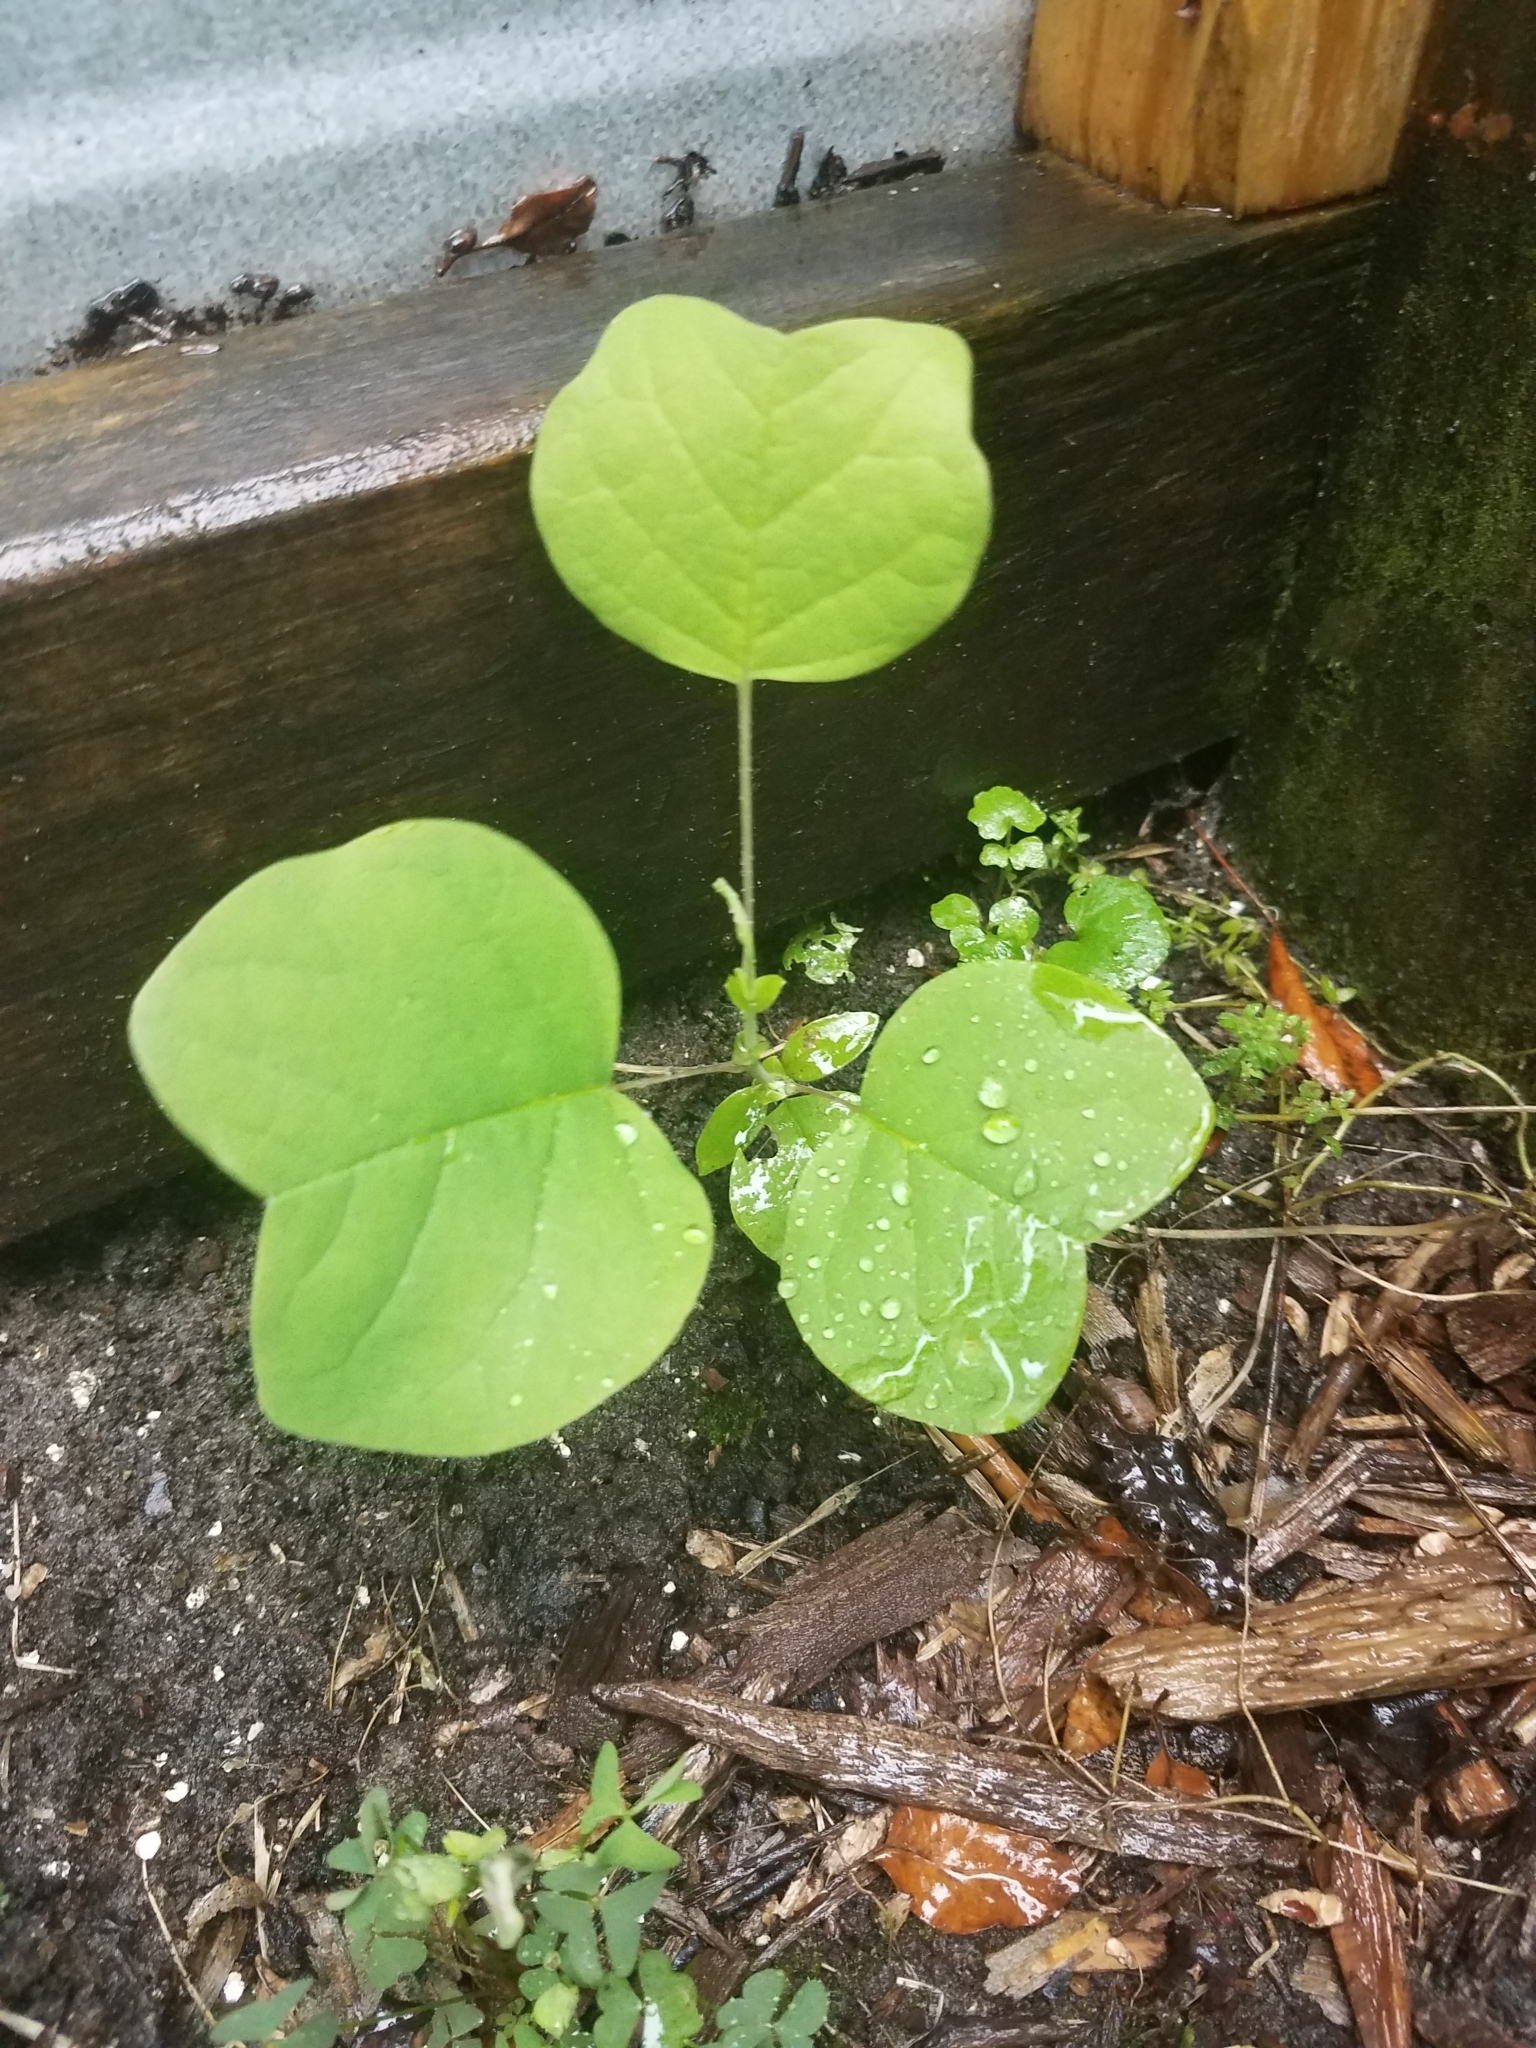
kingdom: Plantae
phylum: Tracheophyta
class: Magnoliopsida
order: Magnoliales
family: Magnoliaceae
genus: Liriodendron
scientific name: Liriodendron tulipifera
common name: Tulip tree
